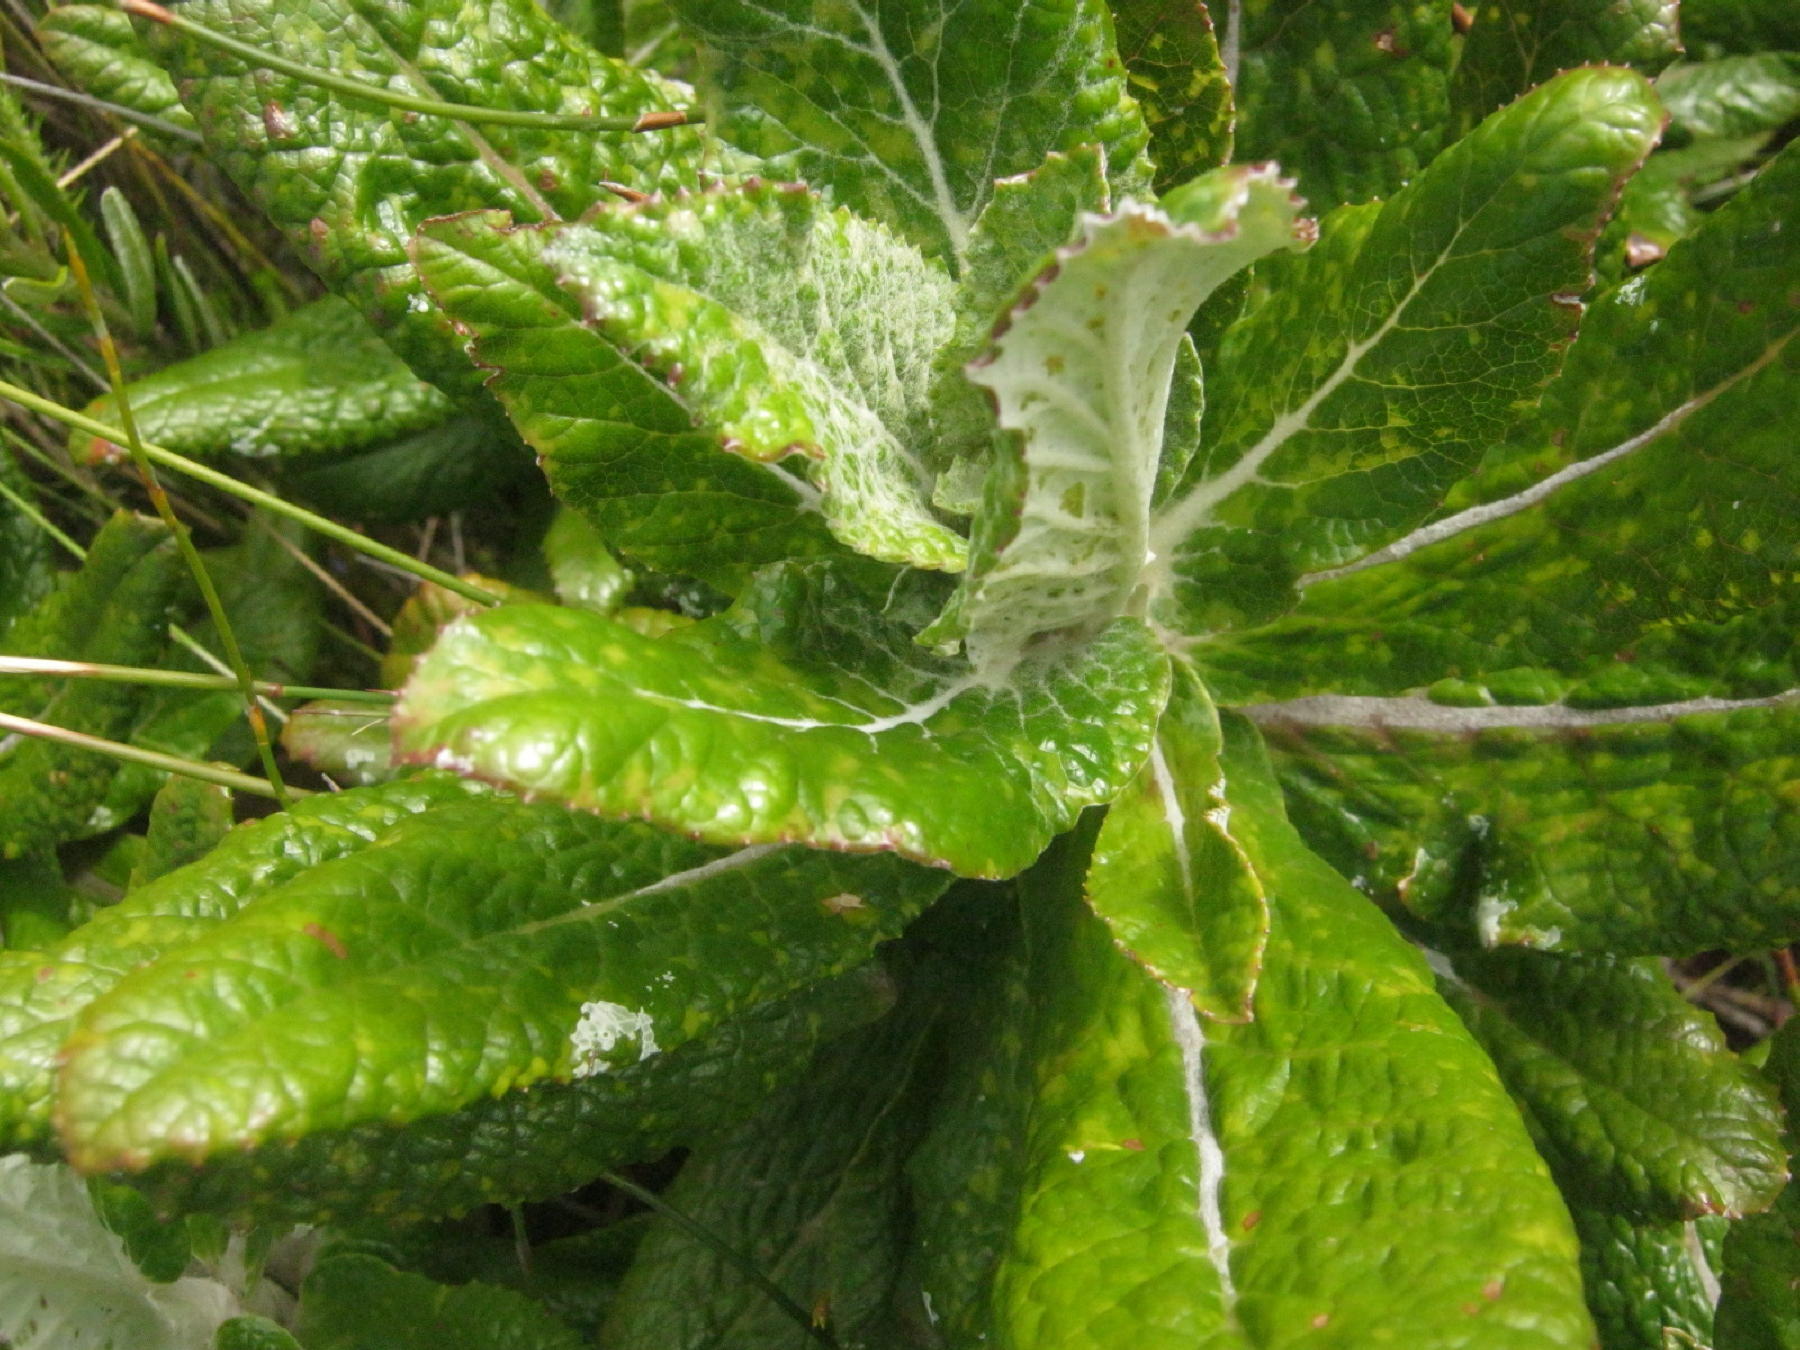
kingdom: Plantae
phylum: Tracheophyta
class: Magnoliopsida
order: Apiales
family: Apiaceae
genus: Hermas
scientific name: Hermas villosa
